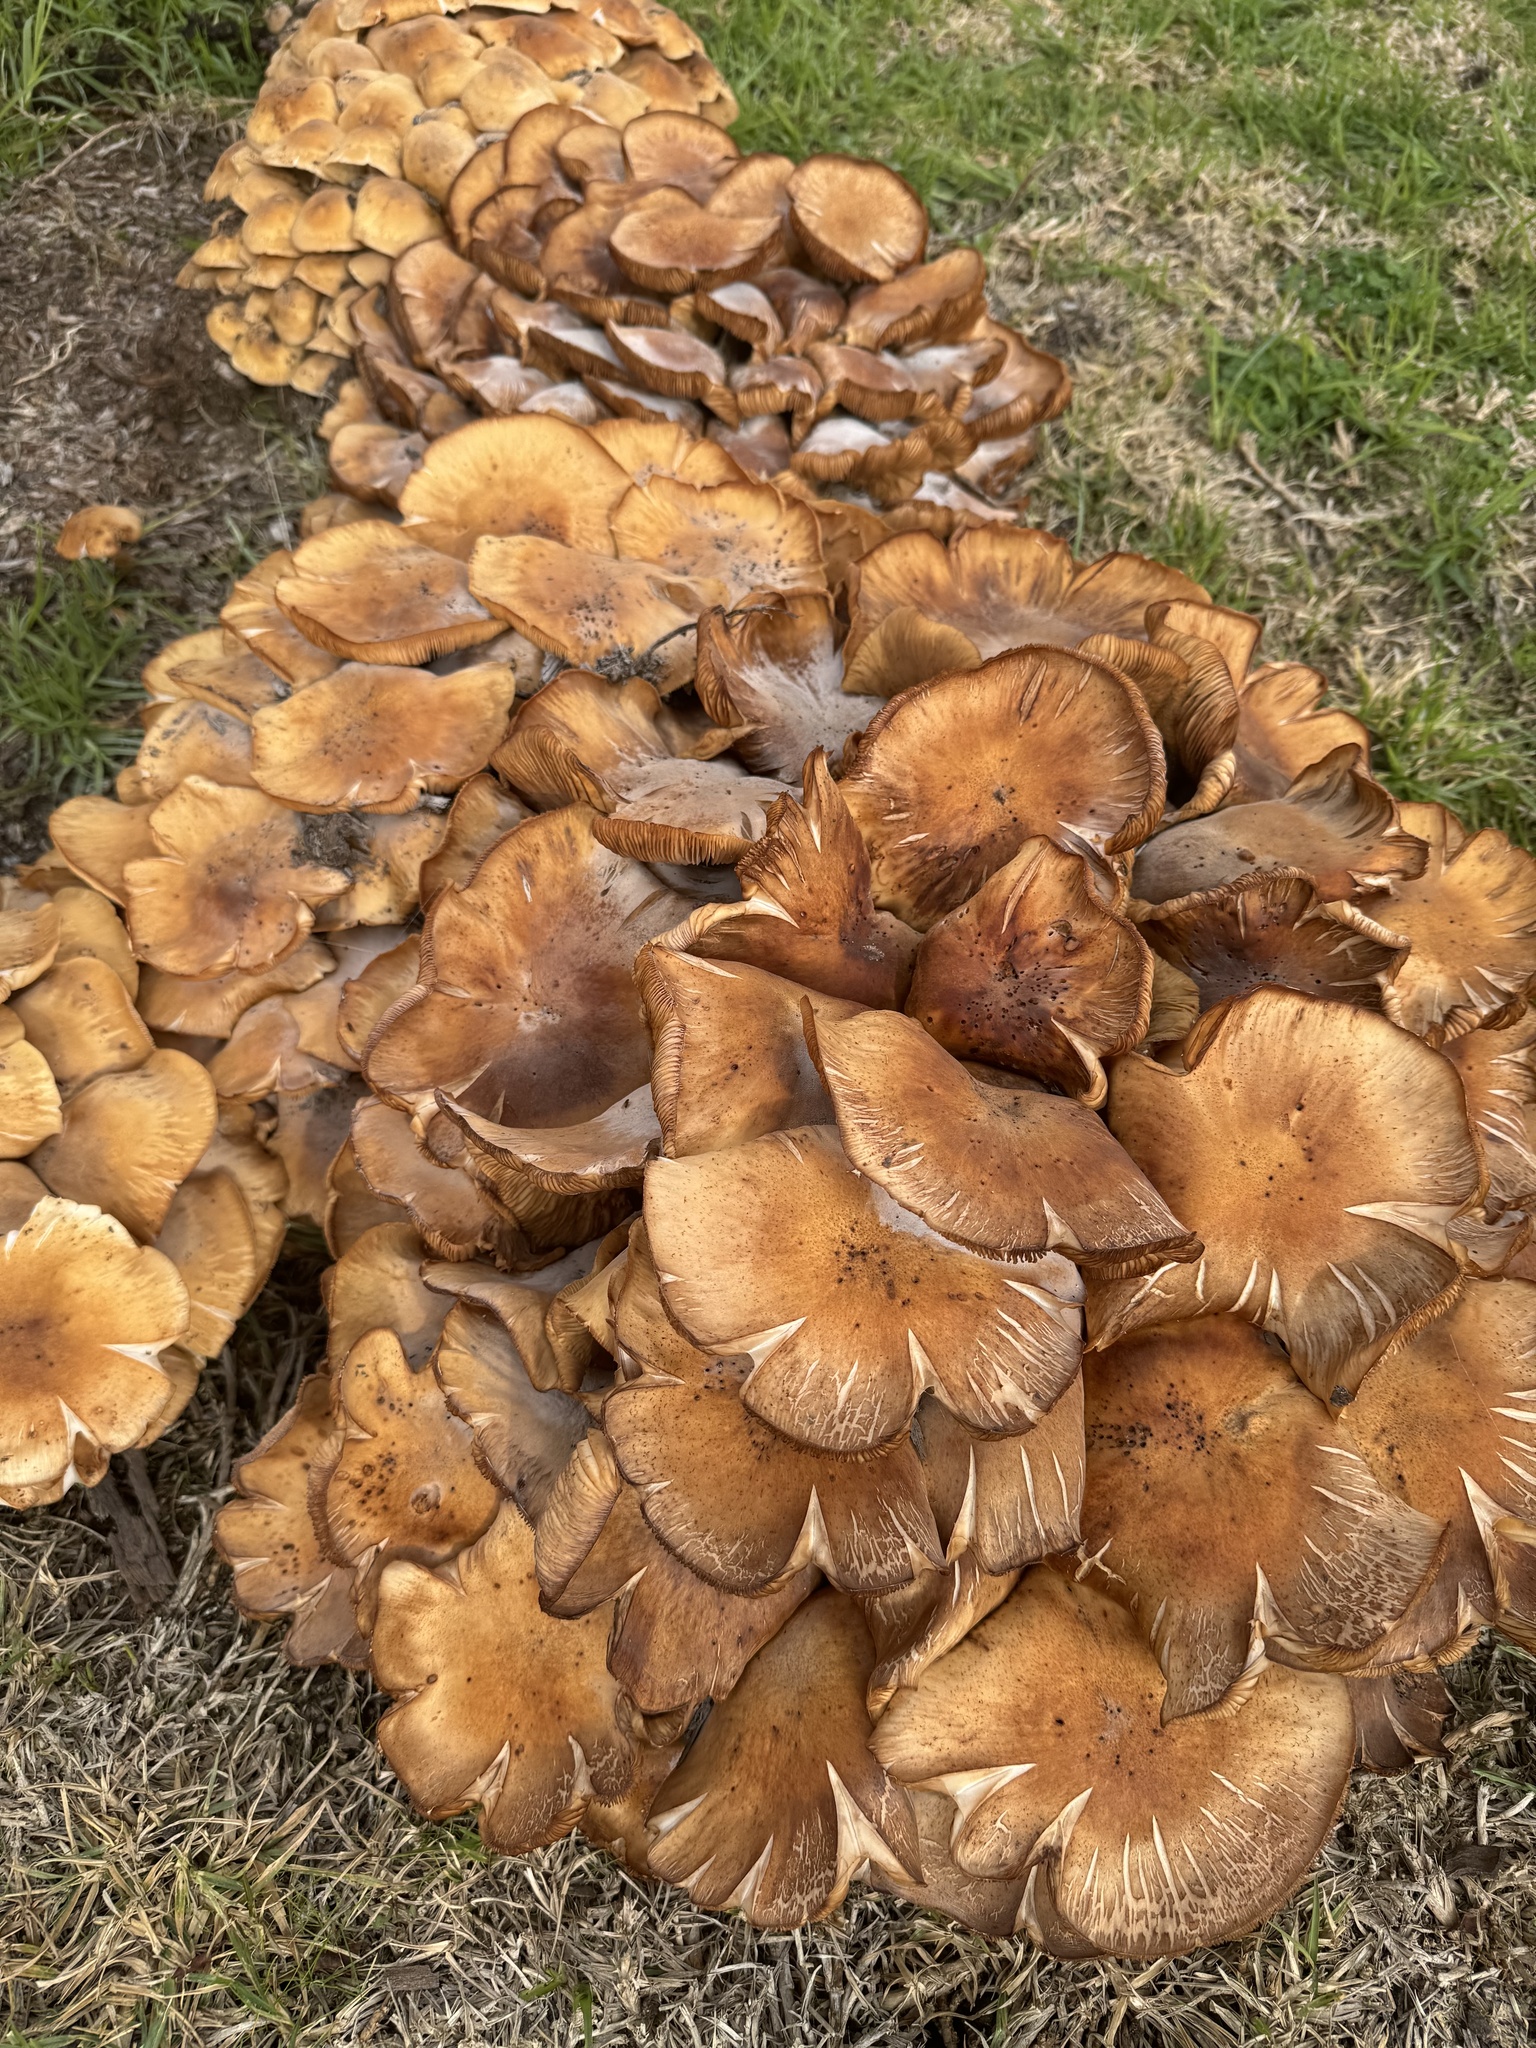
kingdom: Fungi
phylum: Basidiomycota
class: Agaricomycetes
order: Agaricales
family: Physalacriaceae
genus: Armillaria
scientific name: Armillaria mellea
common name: Honey fungus
